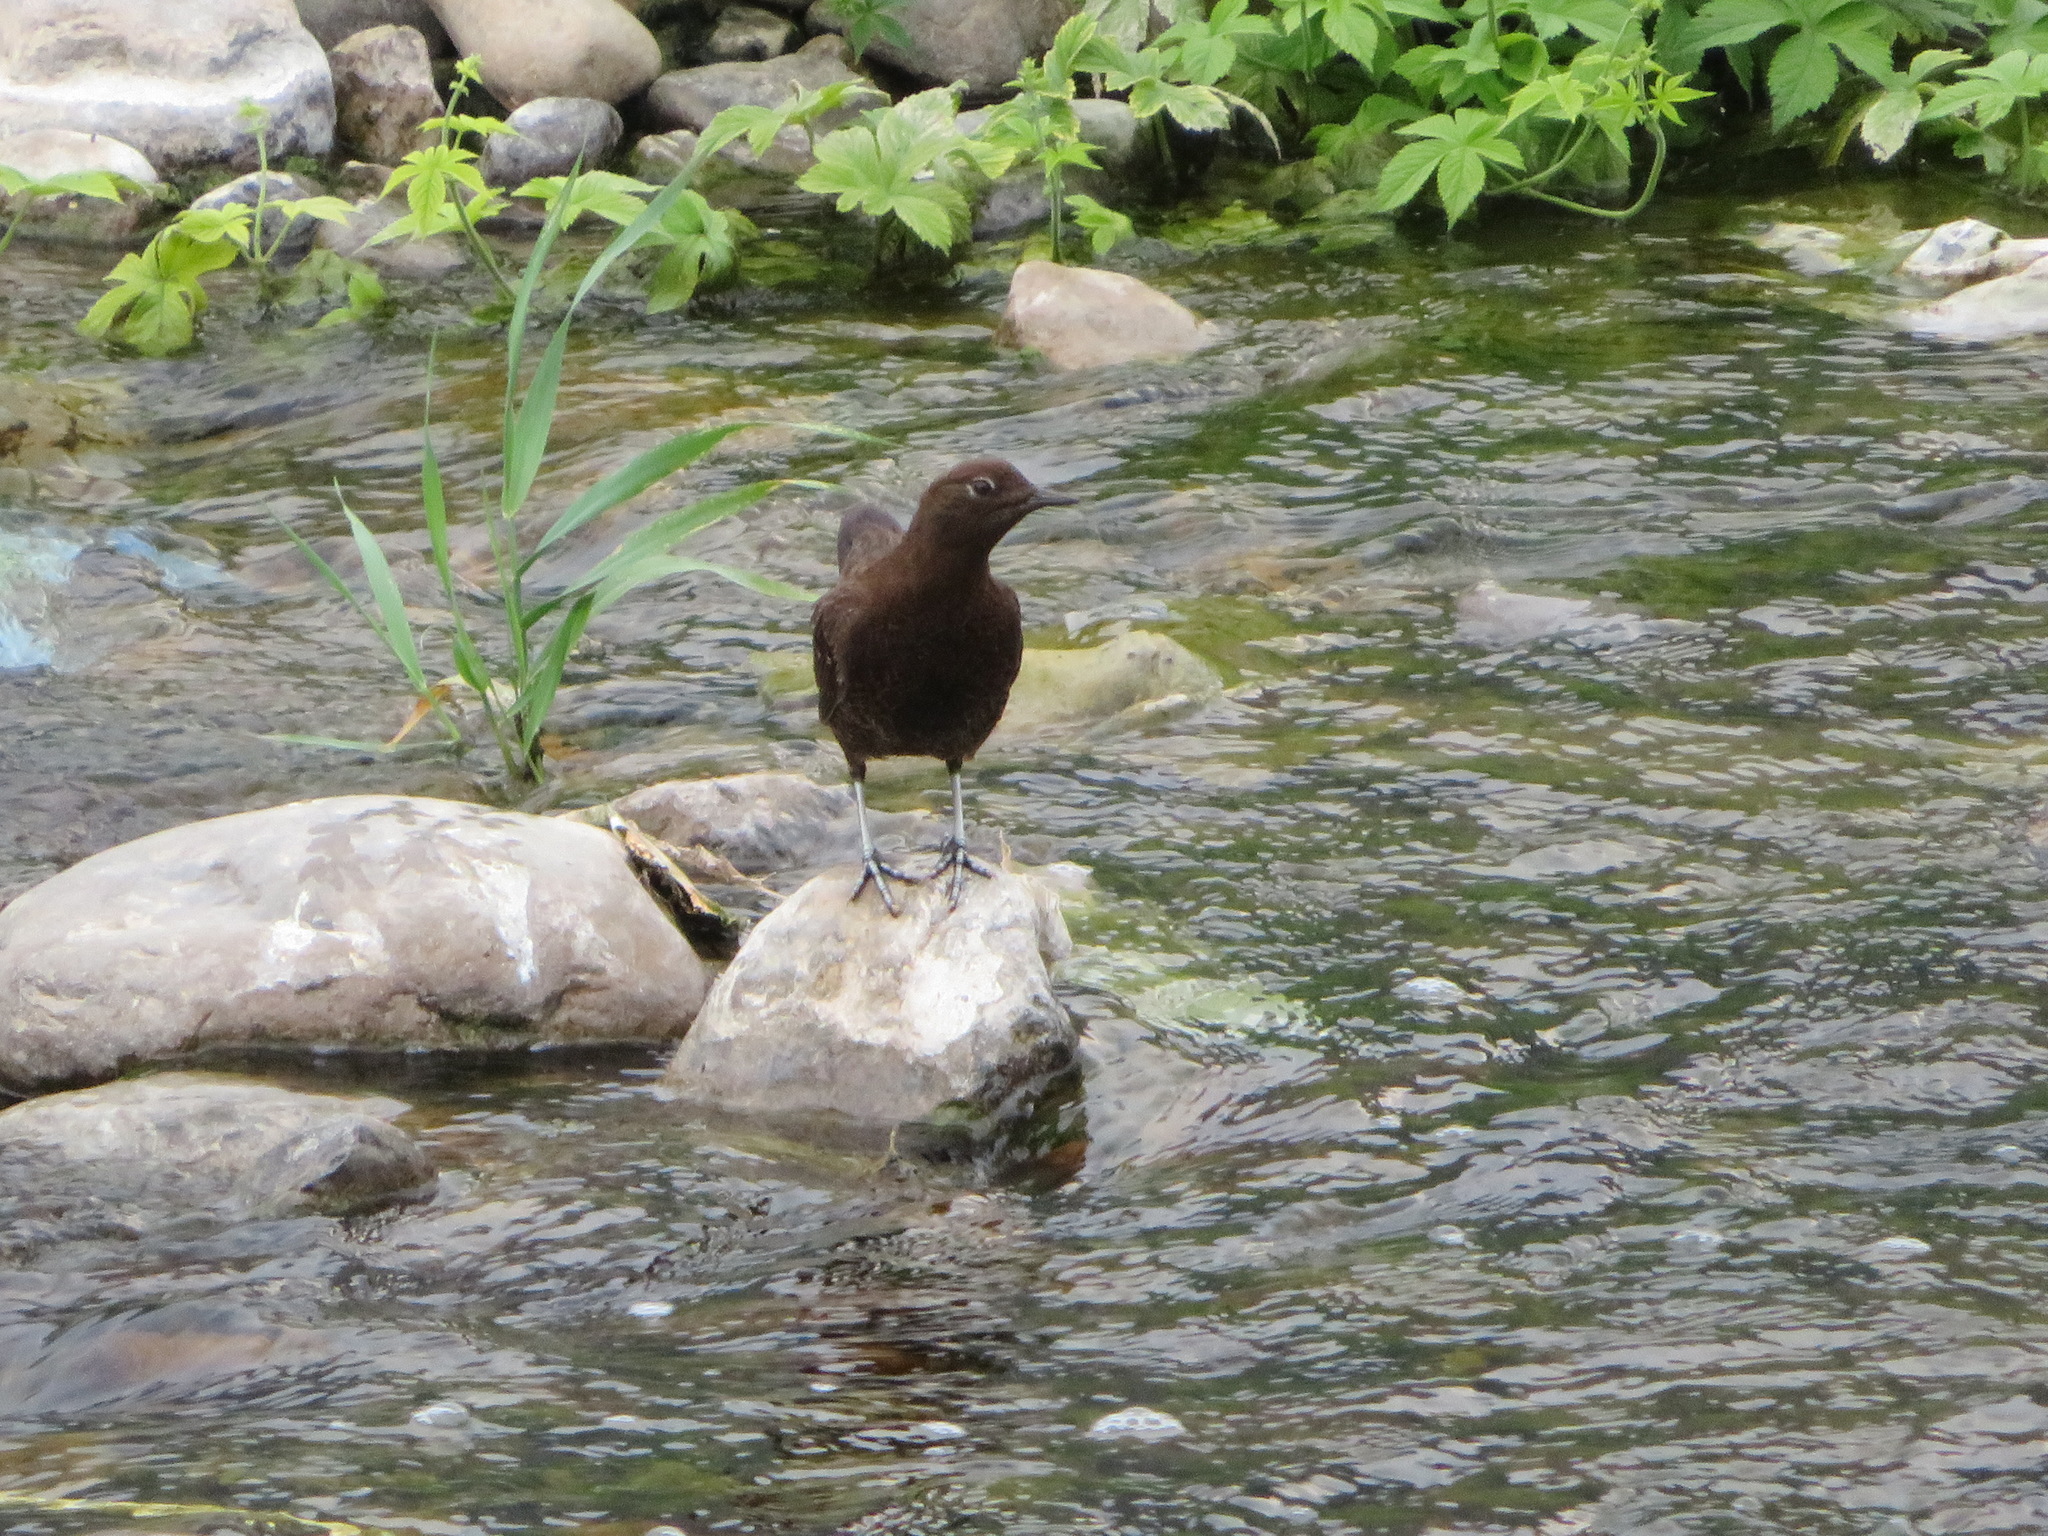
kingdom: Animalia
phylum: Chordata
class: Aves
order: Passeriformes
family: Cinclidae
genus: Cinclus
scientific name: Cinclus pallasii
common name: Brown dipper
